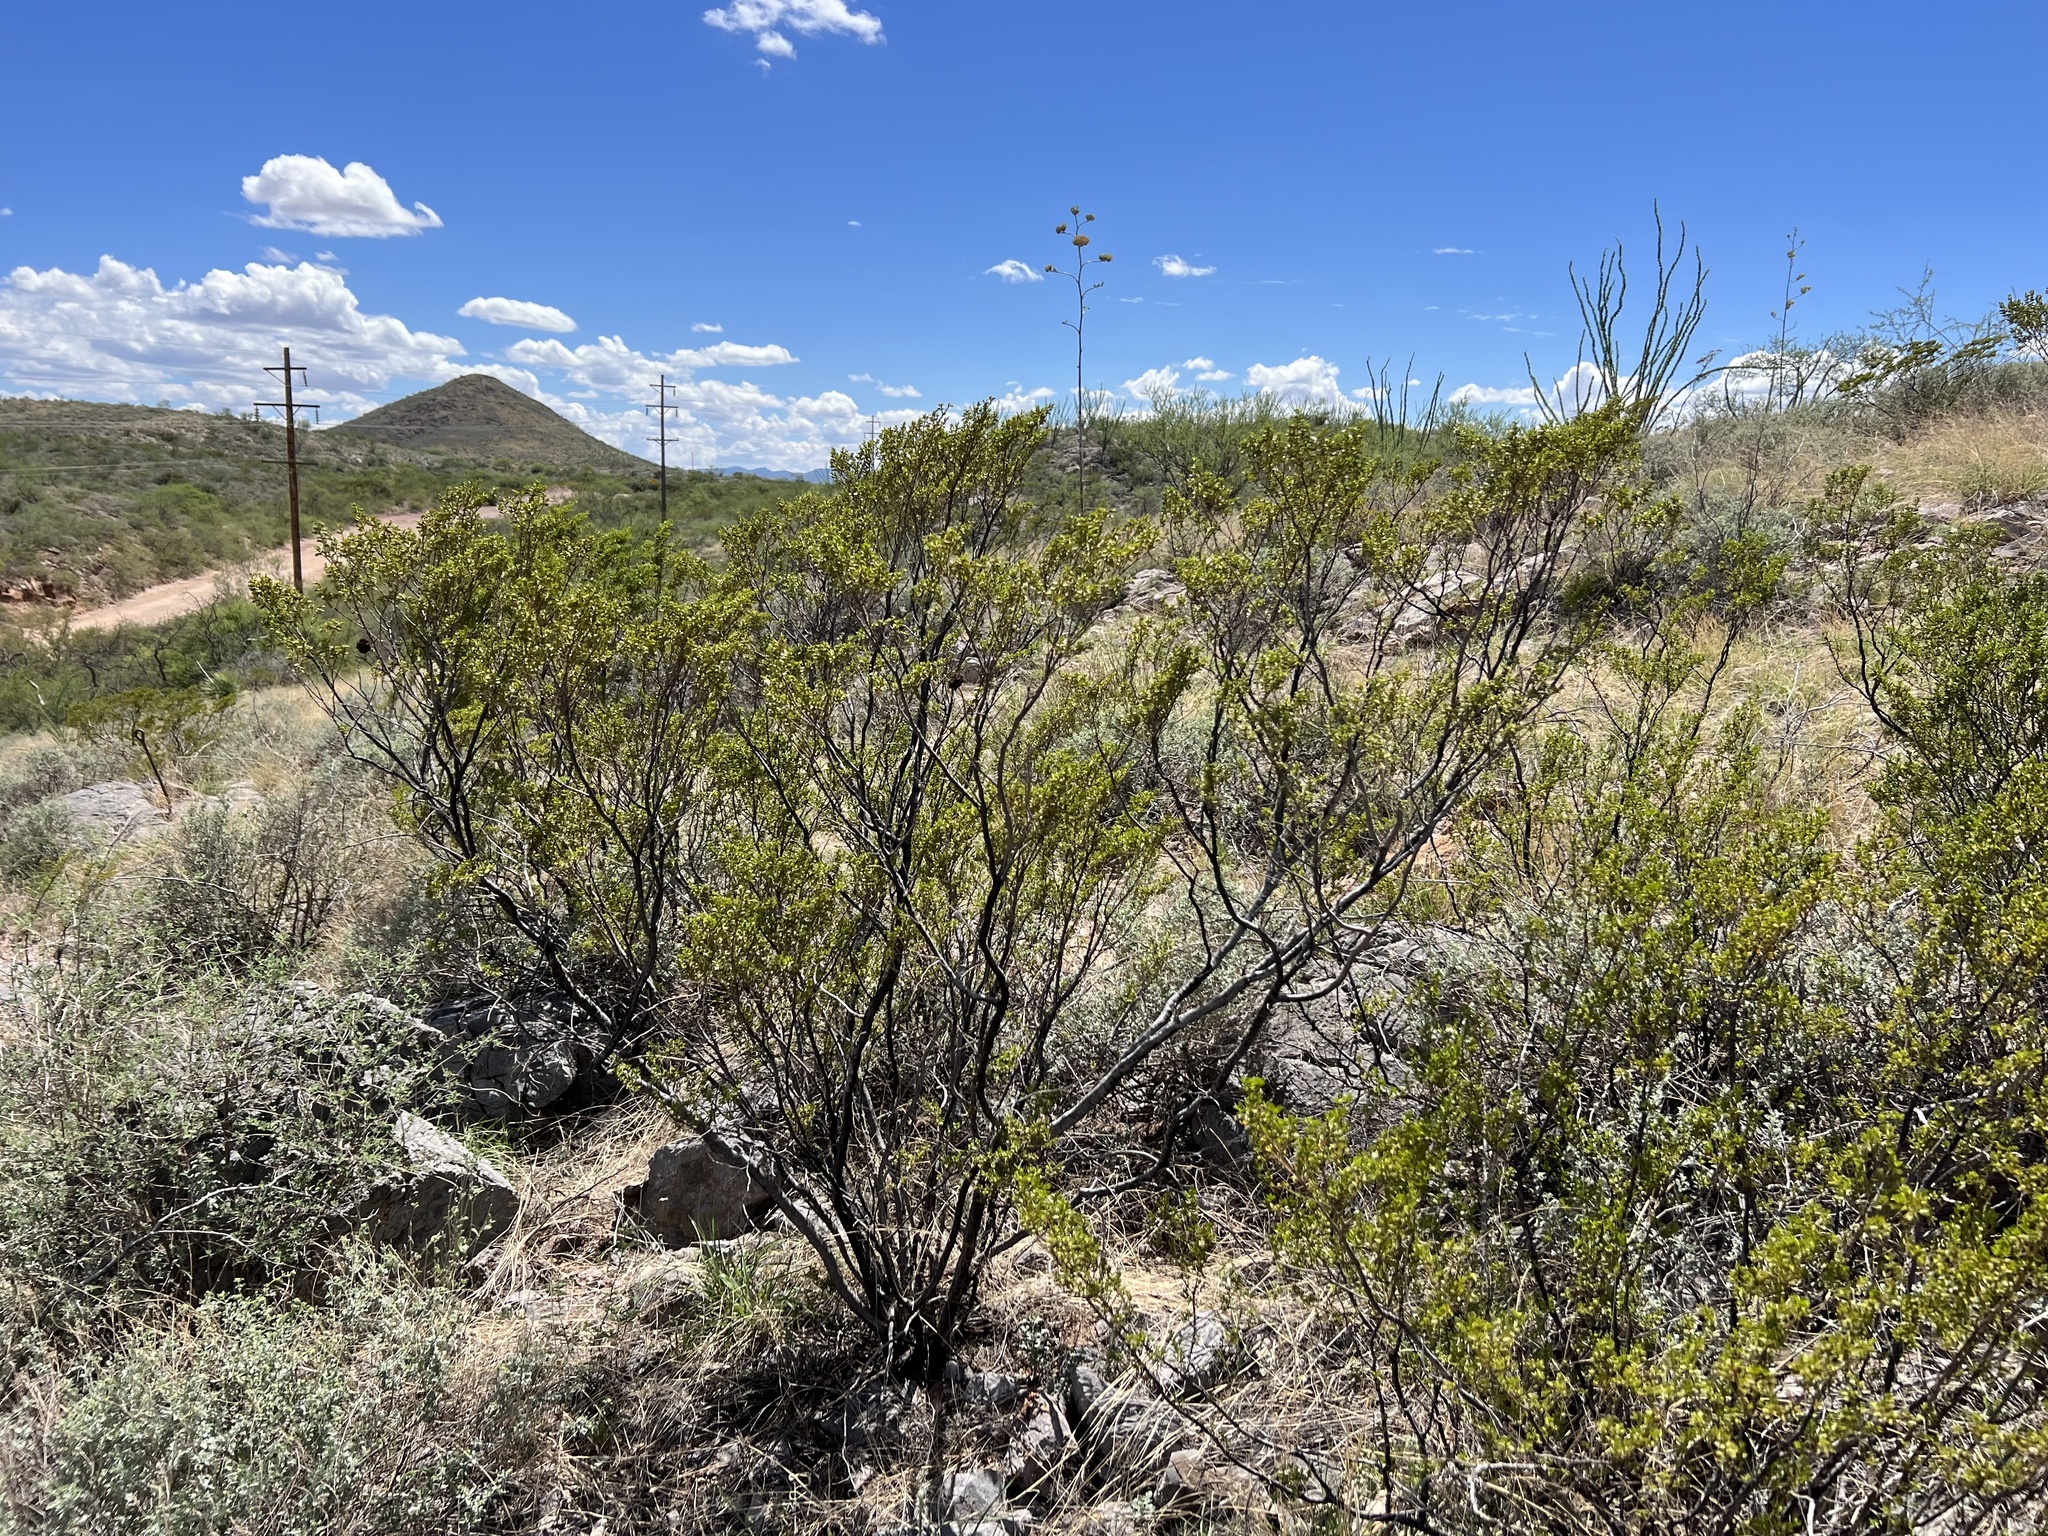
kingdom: Plantae
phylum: Tracheophyta
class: Magnoliopsida
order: Zygophyllales
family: Zygophyllaceae
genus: Larrea
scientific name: Larrea tridentata
